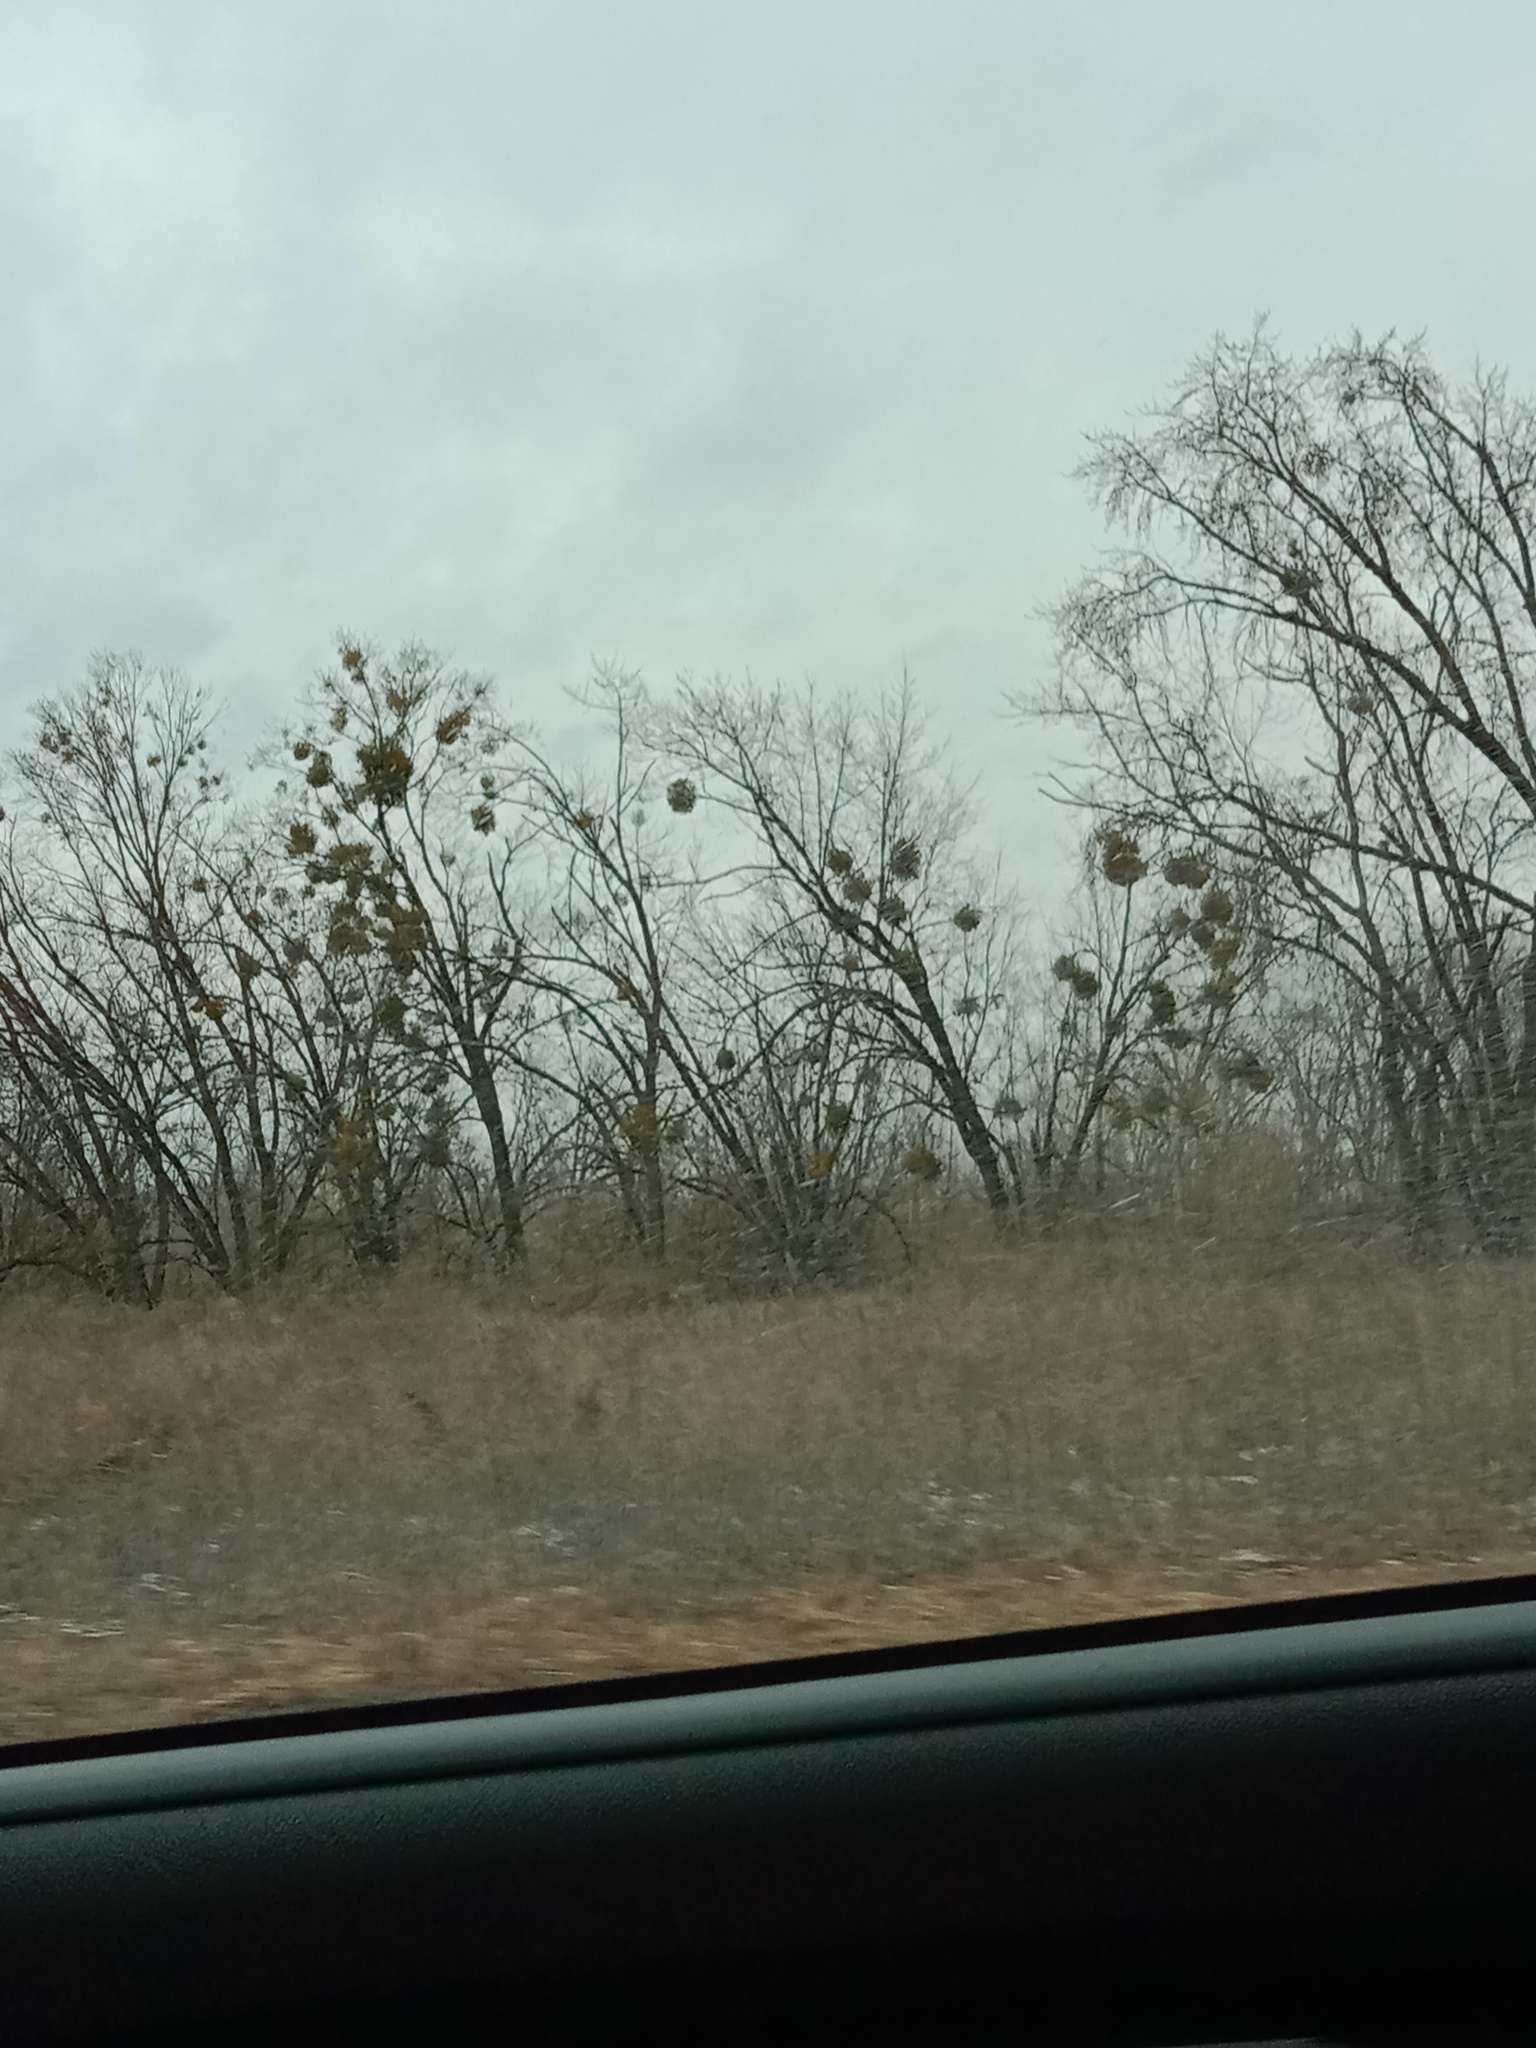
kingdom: Plantae
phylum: Tracheophyta
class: Magnoliopsida
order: Santalales
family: Viscaceae
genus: Viscum
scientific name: Viscum album
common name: Mistletoe
